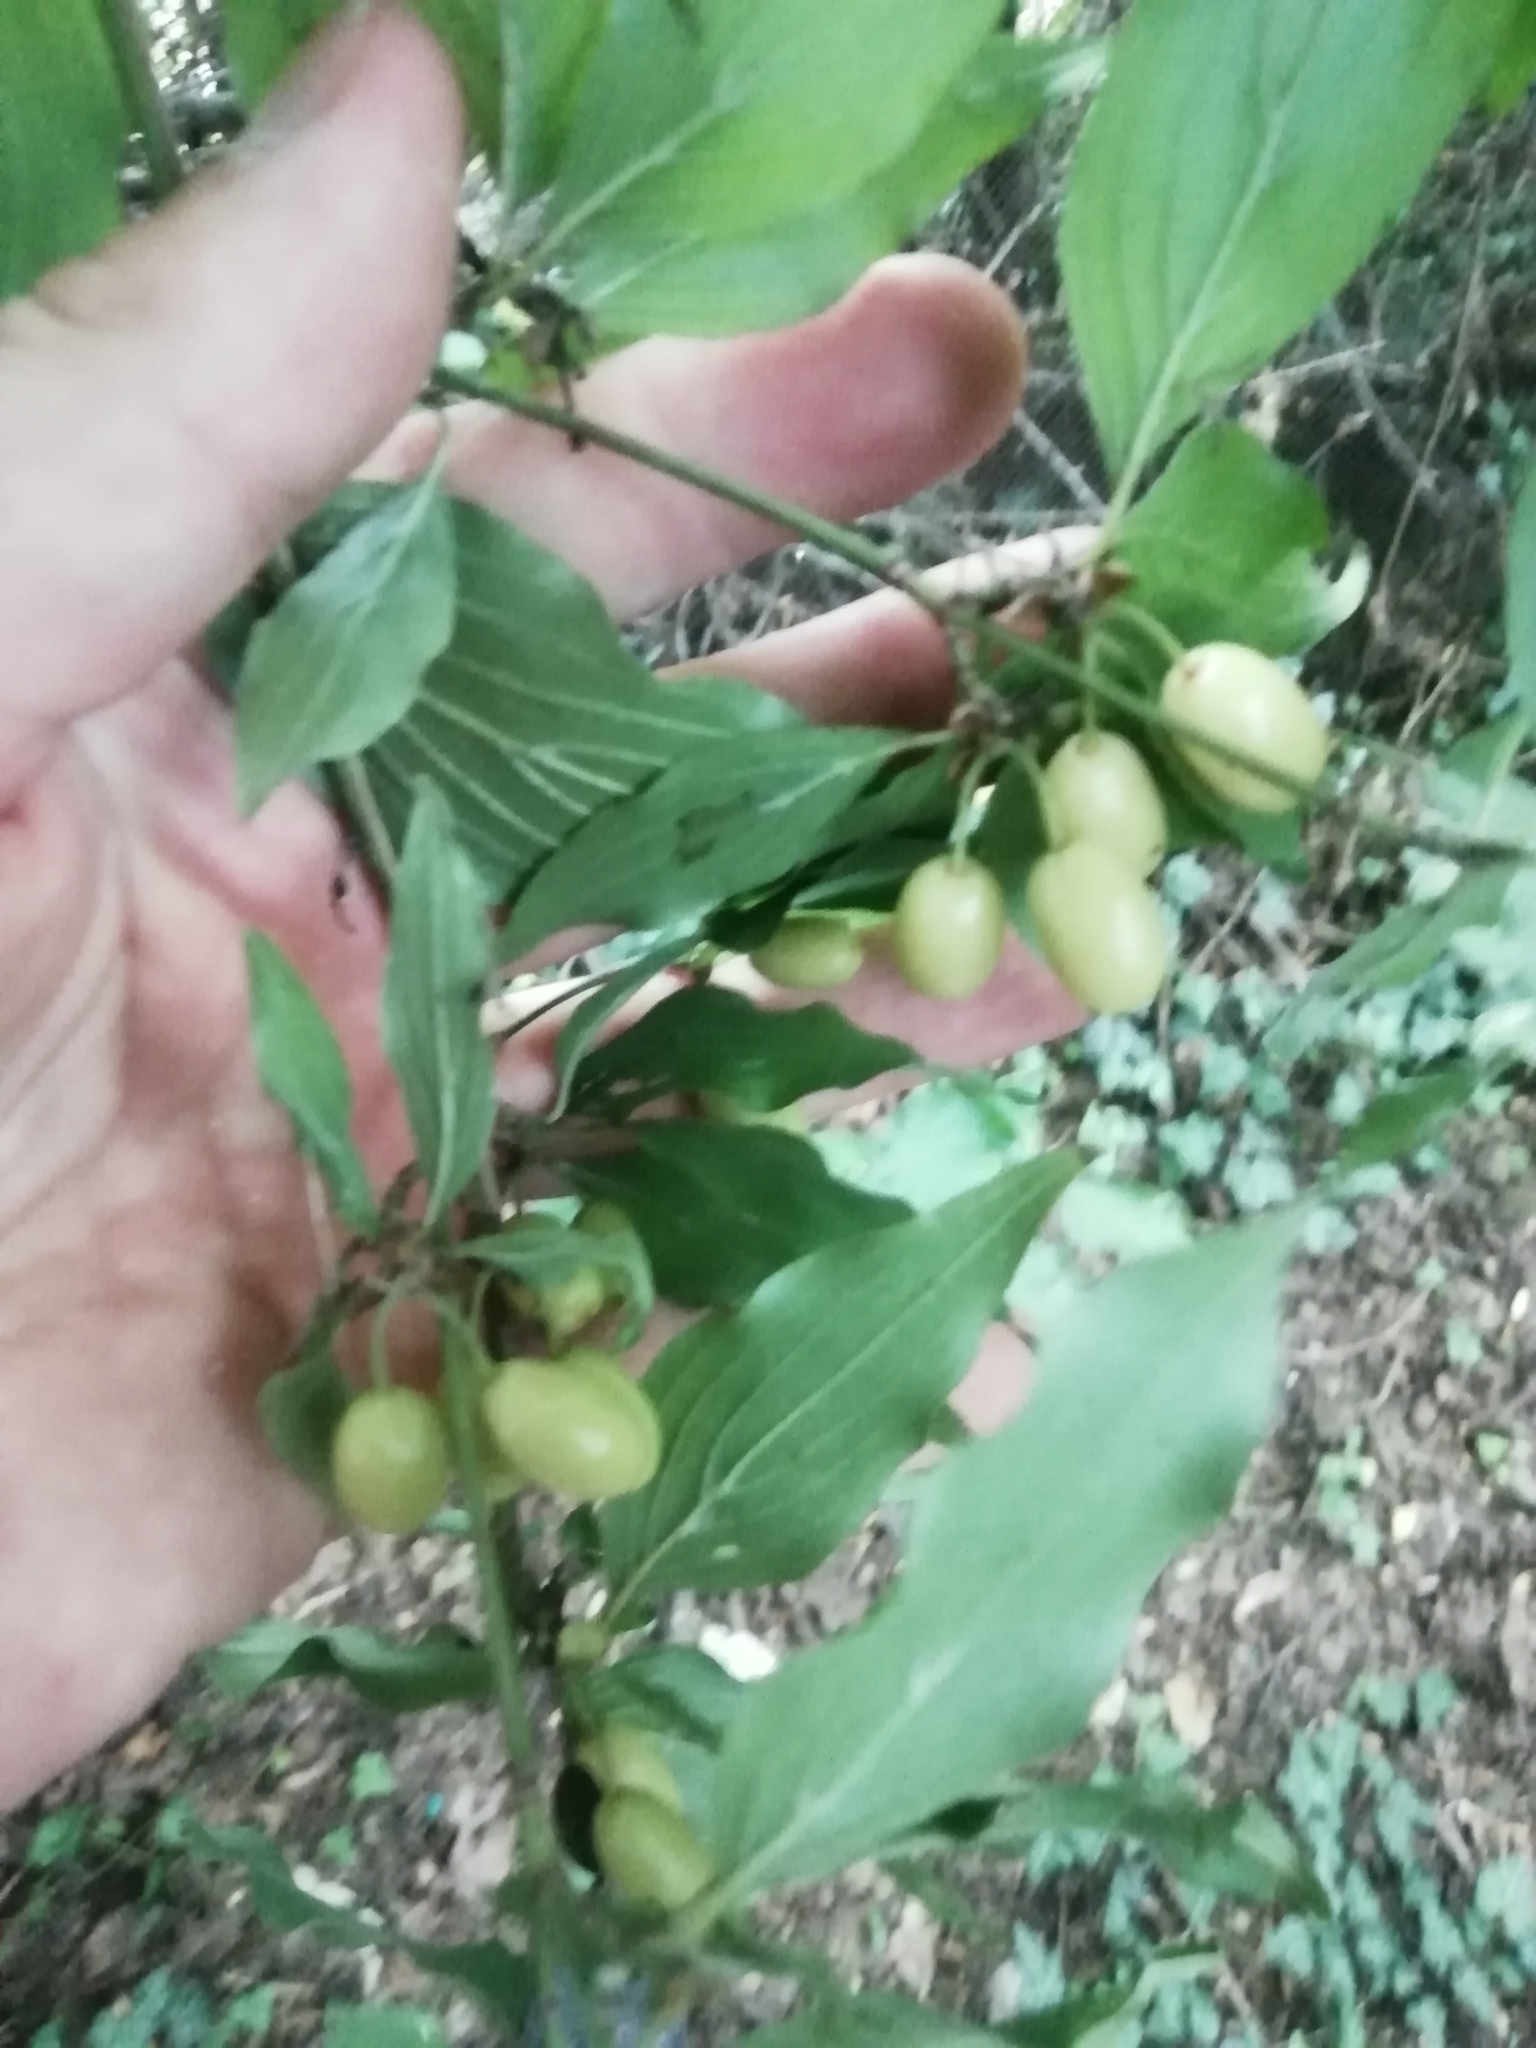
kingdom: Plantae
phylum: Tracheophyta
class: Magnoliopsida
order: Cornales
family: Cornaceae
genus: Cornus
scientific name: Cornus mas
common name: Cornelian-cherry
